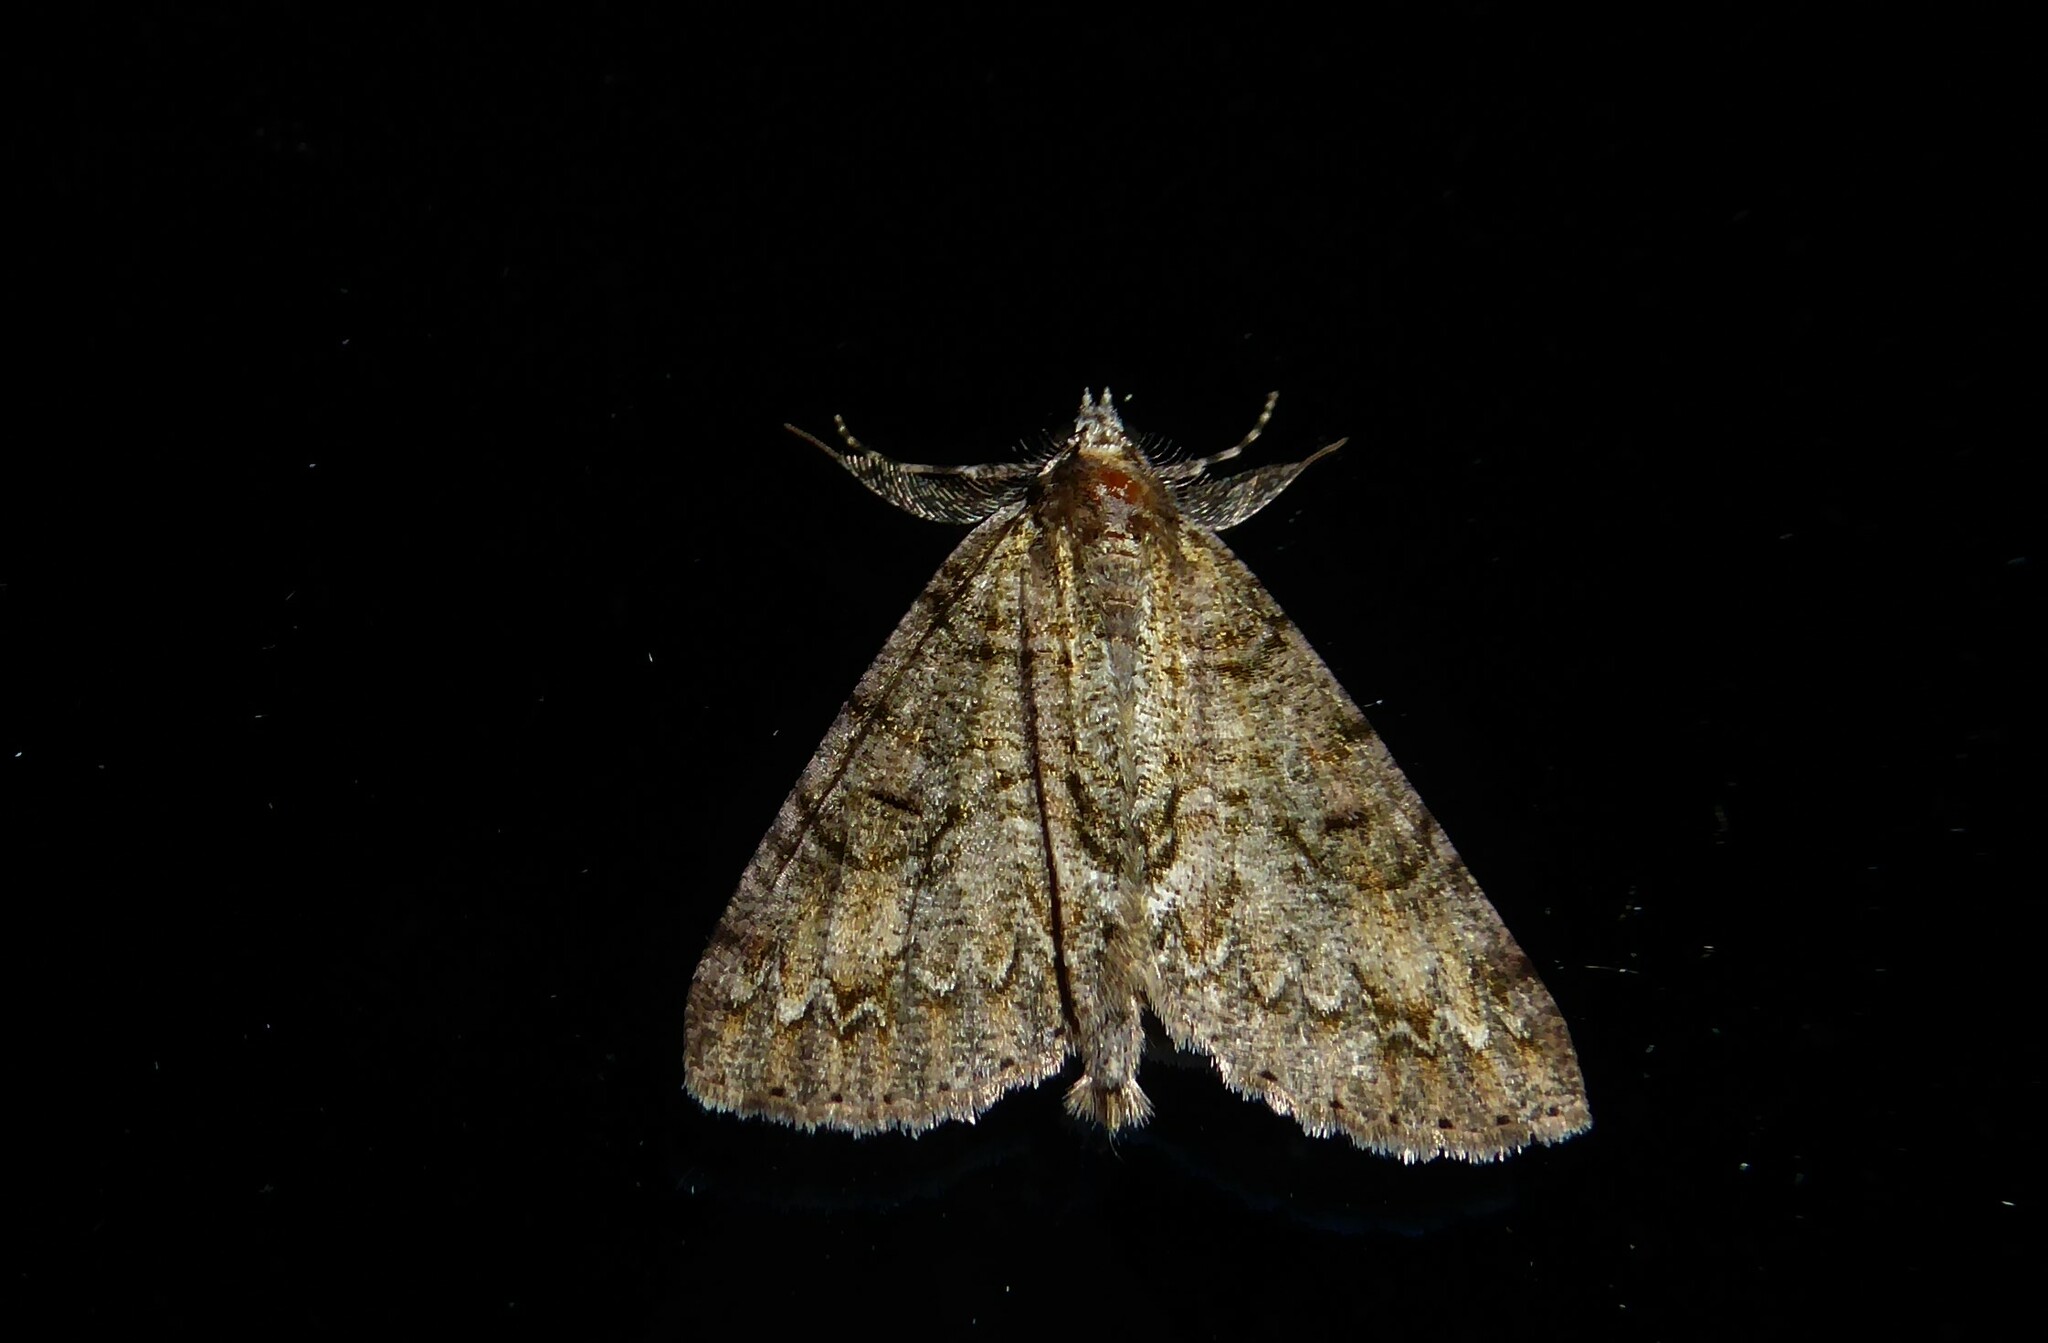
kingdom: Animalia
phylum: Arthropoda
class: Insecta
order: Lepidoptera
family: Geometridae
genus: Pseudocoremia
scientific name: Pseudocoremia suavis
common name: Common forest looper
